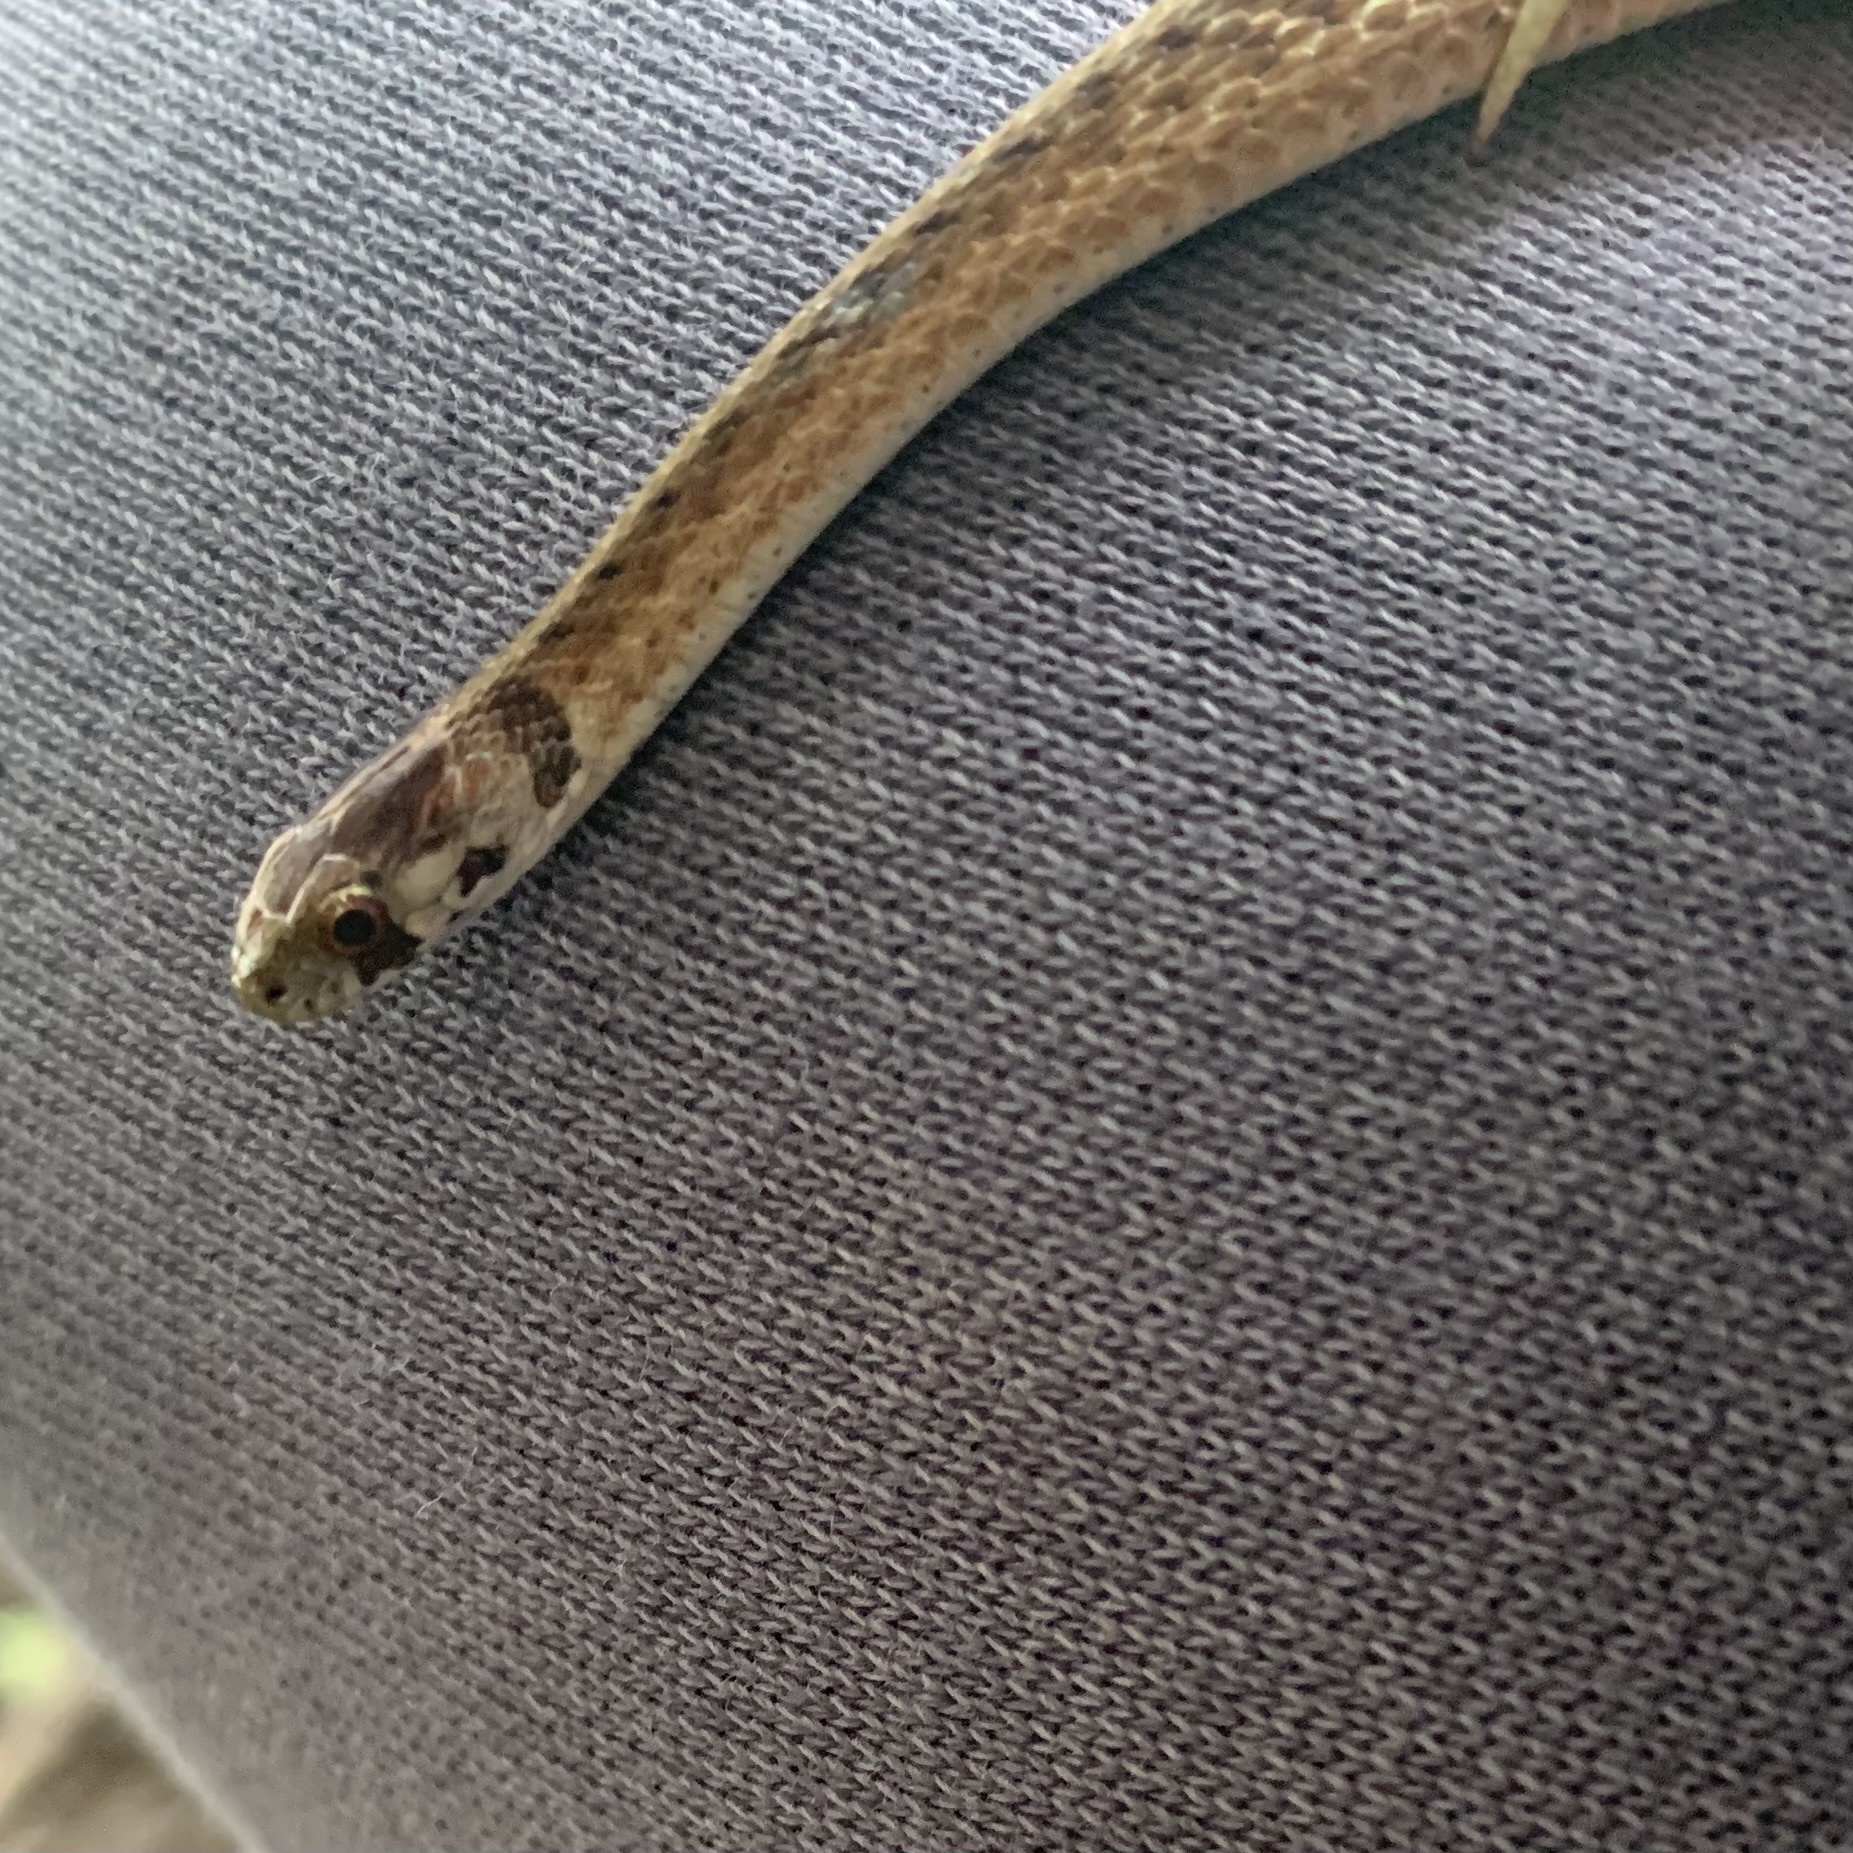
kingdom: Animalia
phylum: Chordata
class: Squamata
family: Colubridae
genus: Storeria
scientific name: Storeria dekayi
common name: (dekay’s) brown snake
